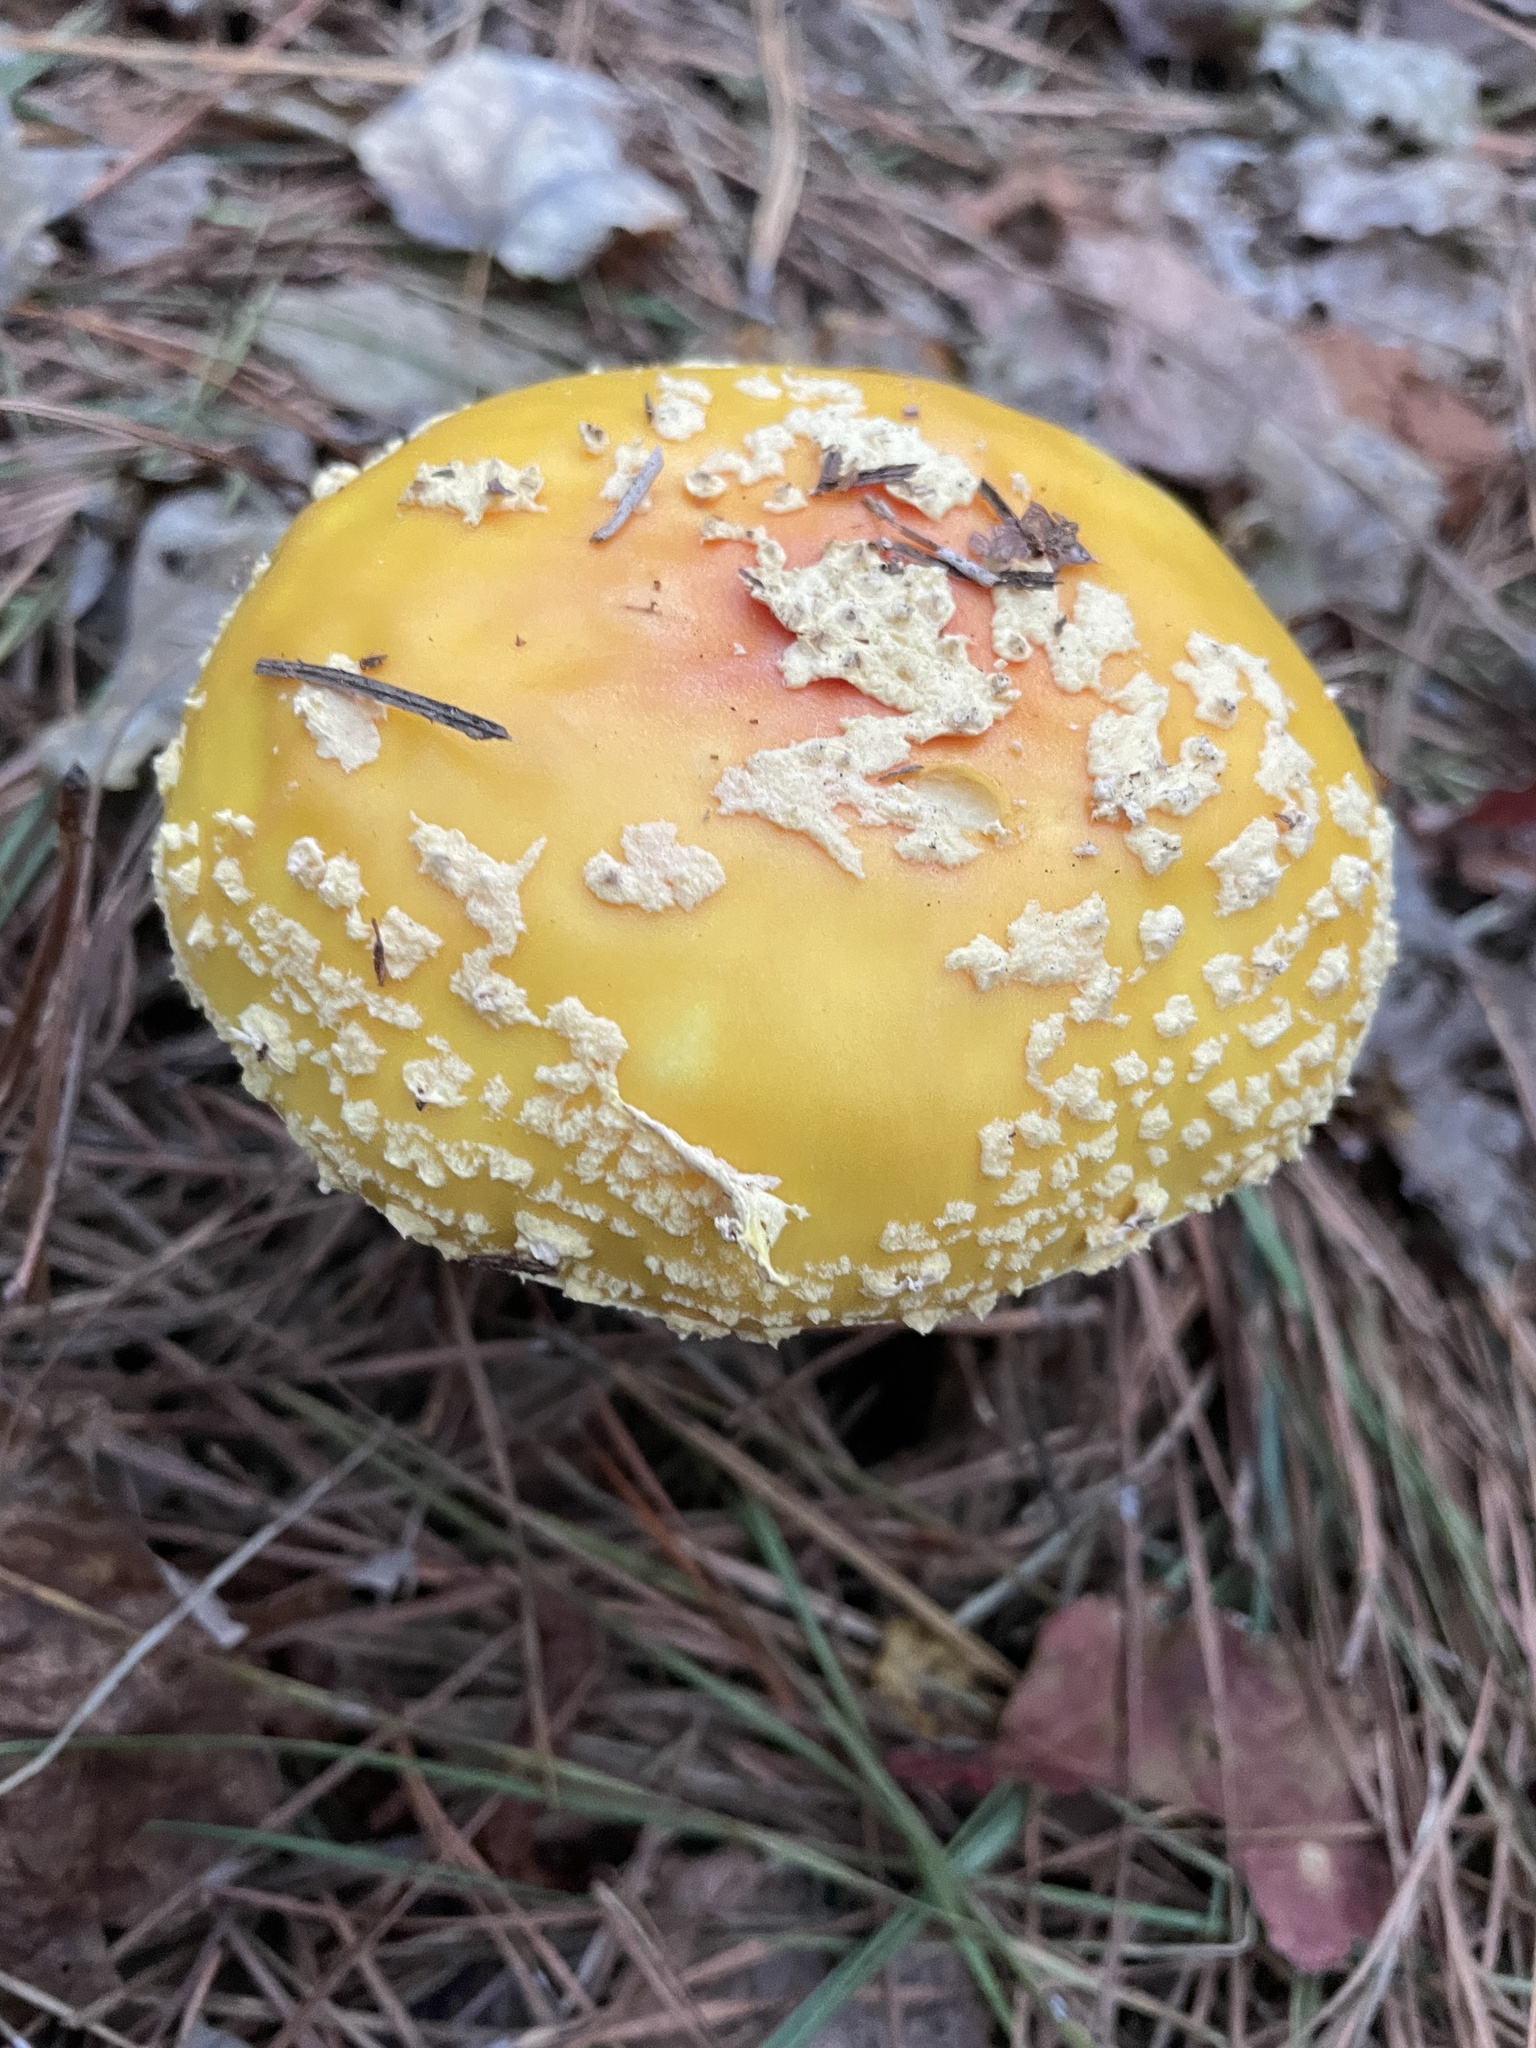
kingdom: Fungi
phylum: Basidiomycota
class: Agaricomycetes
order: Agaricales
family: Amanitaceae
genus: Amanita
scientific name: Amanita muscaria
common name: Fly agaric
